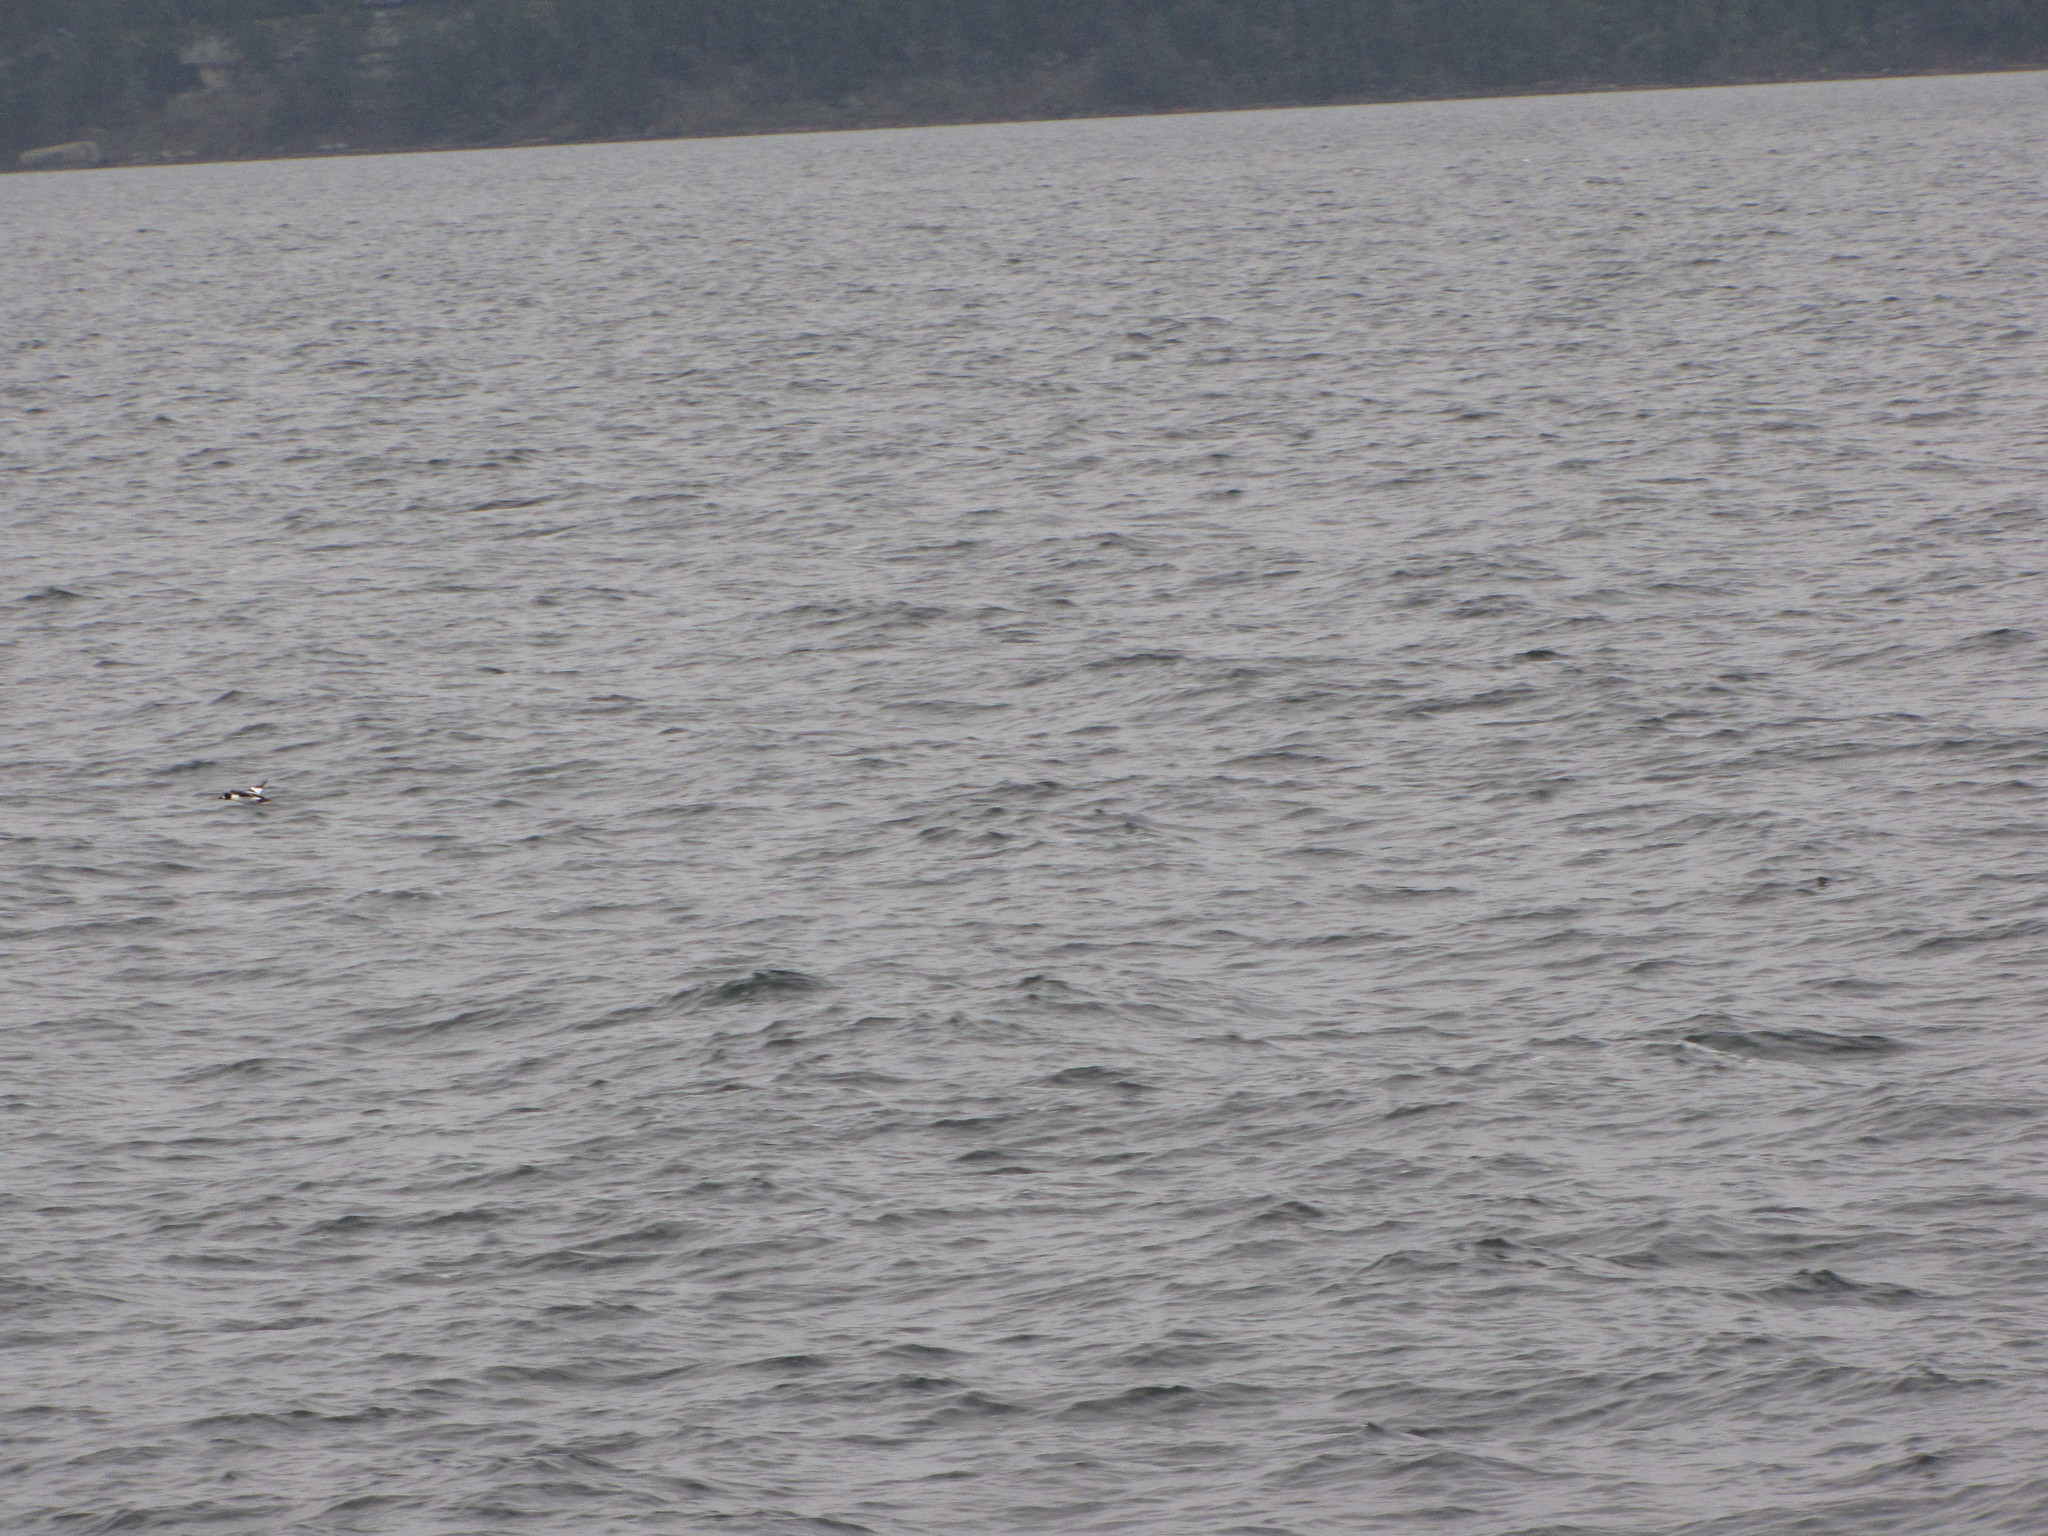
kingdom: Animalia
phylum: Chordata
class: Aves
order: Anseriformes
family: Anatidae
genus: Bucephala
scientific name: Bucephala clangula
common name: Common goldeneye
